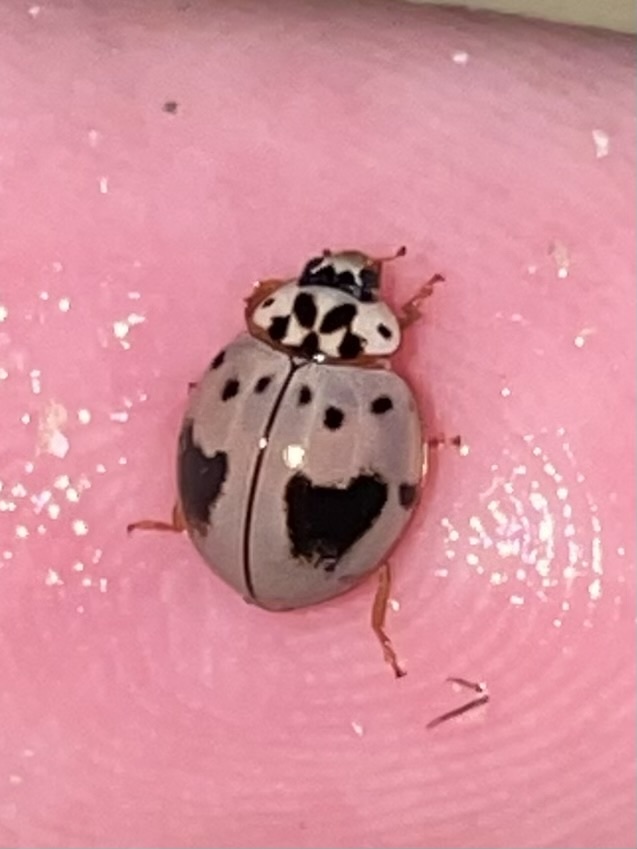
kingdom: Animalia
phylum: Arthropoda
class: Insecta
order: Coleoptera
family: Coccinellidae
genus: Olla
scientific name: Olla v-nigrum
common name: Ashy gray lady beetle
